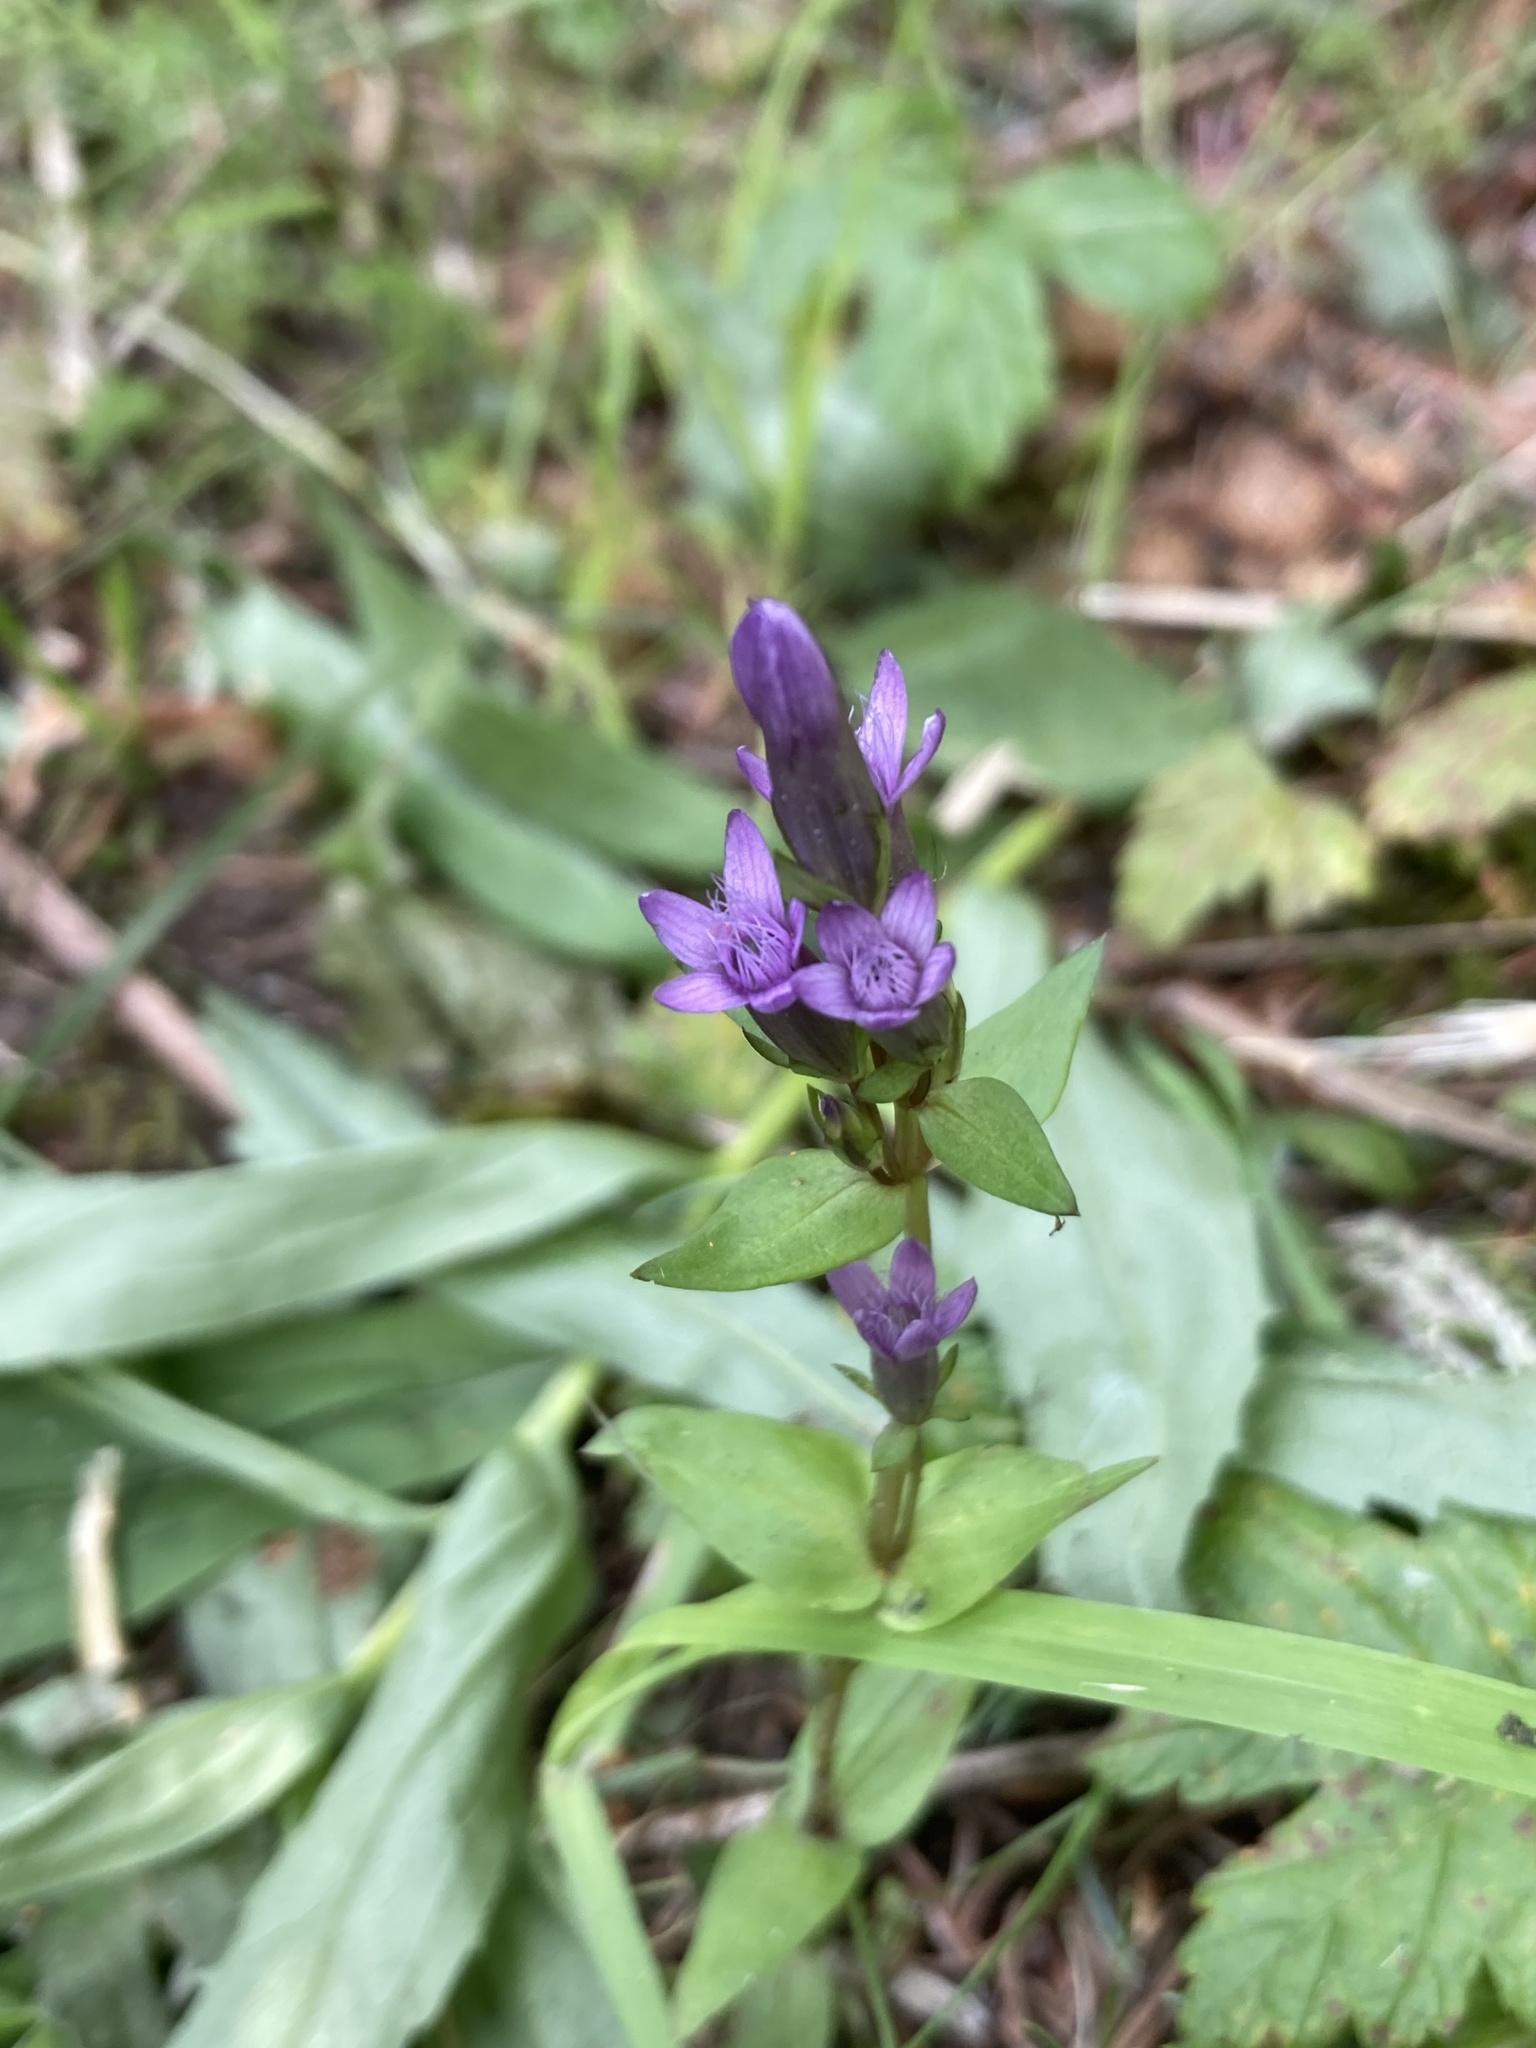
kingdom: Plantae
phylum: Tracheophyta
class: Magnoliopsida
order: Gentianales
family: Gentianaceae
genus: Gentianella
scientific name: Gentianella amarella
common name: Autumn gentian
